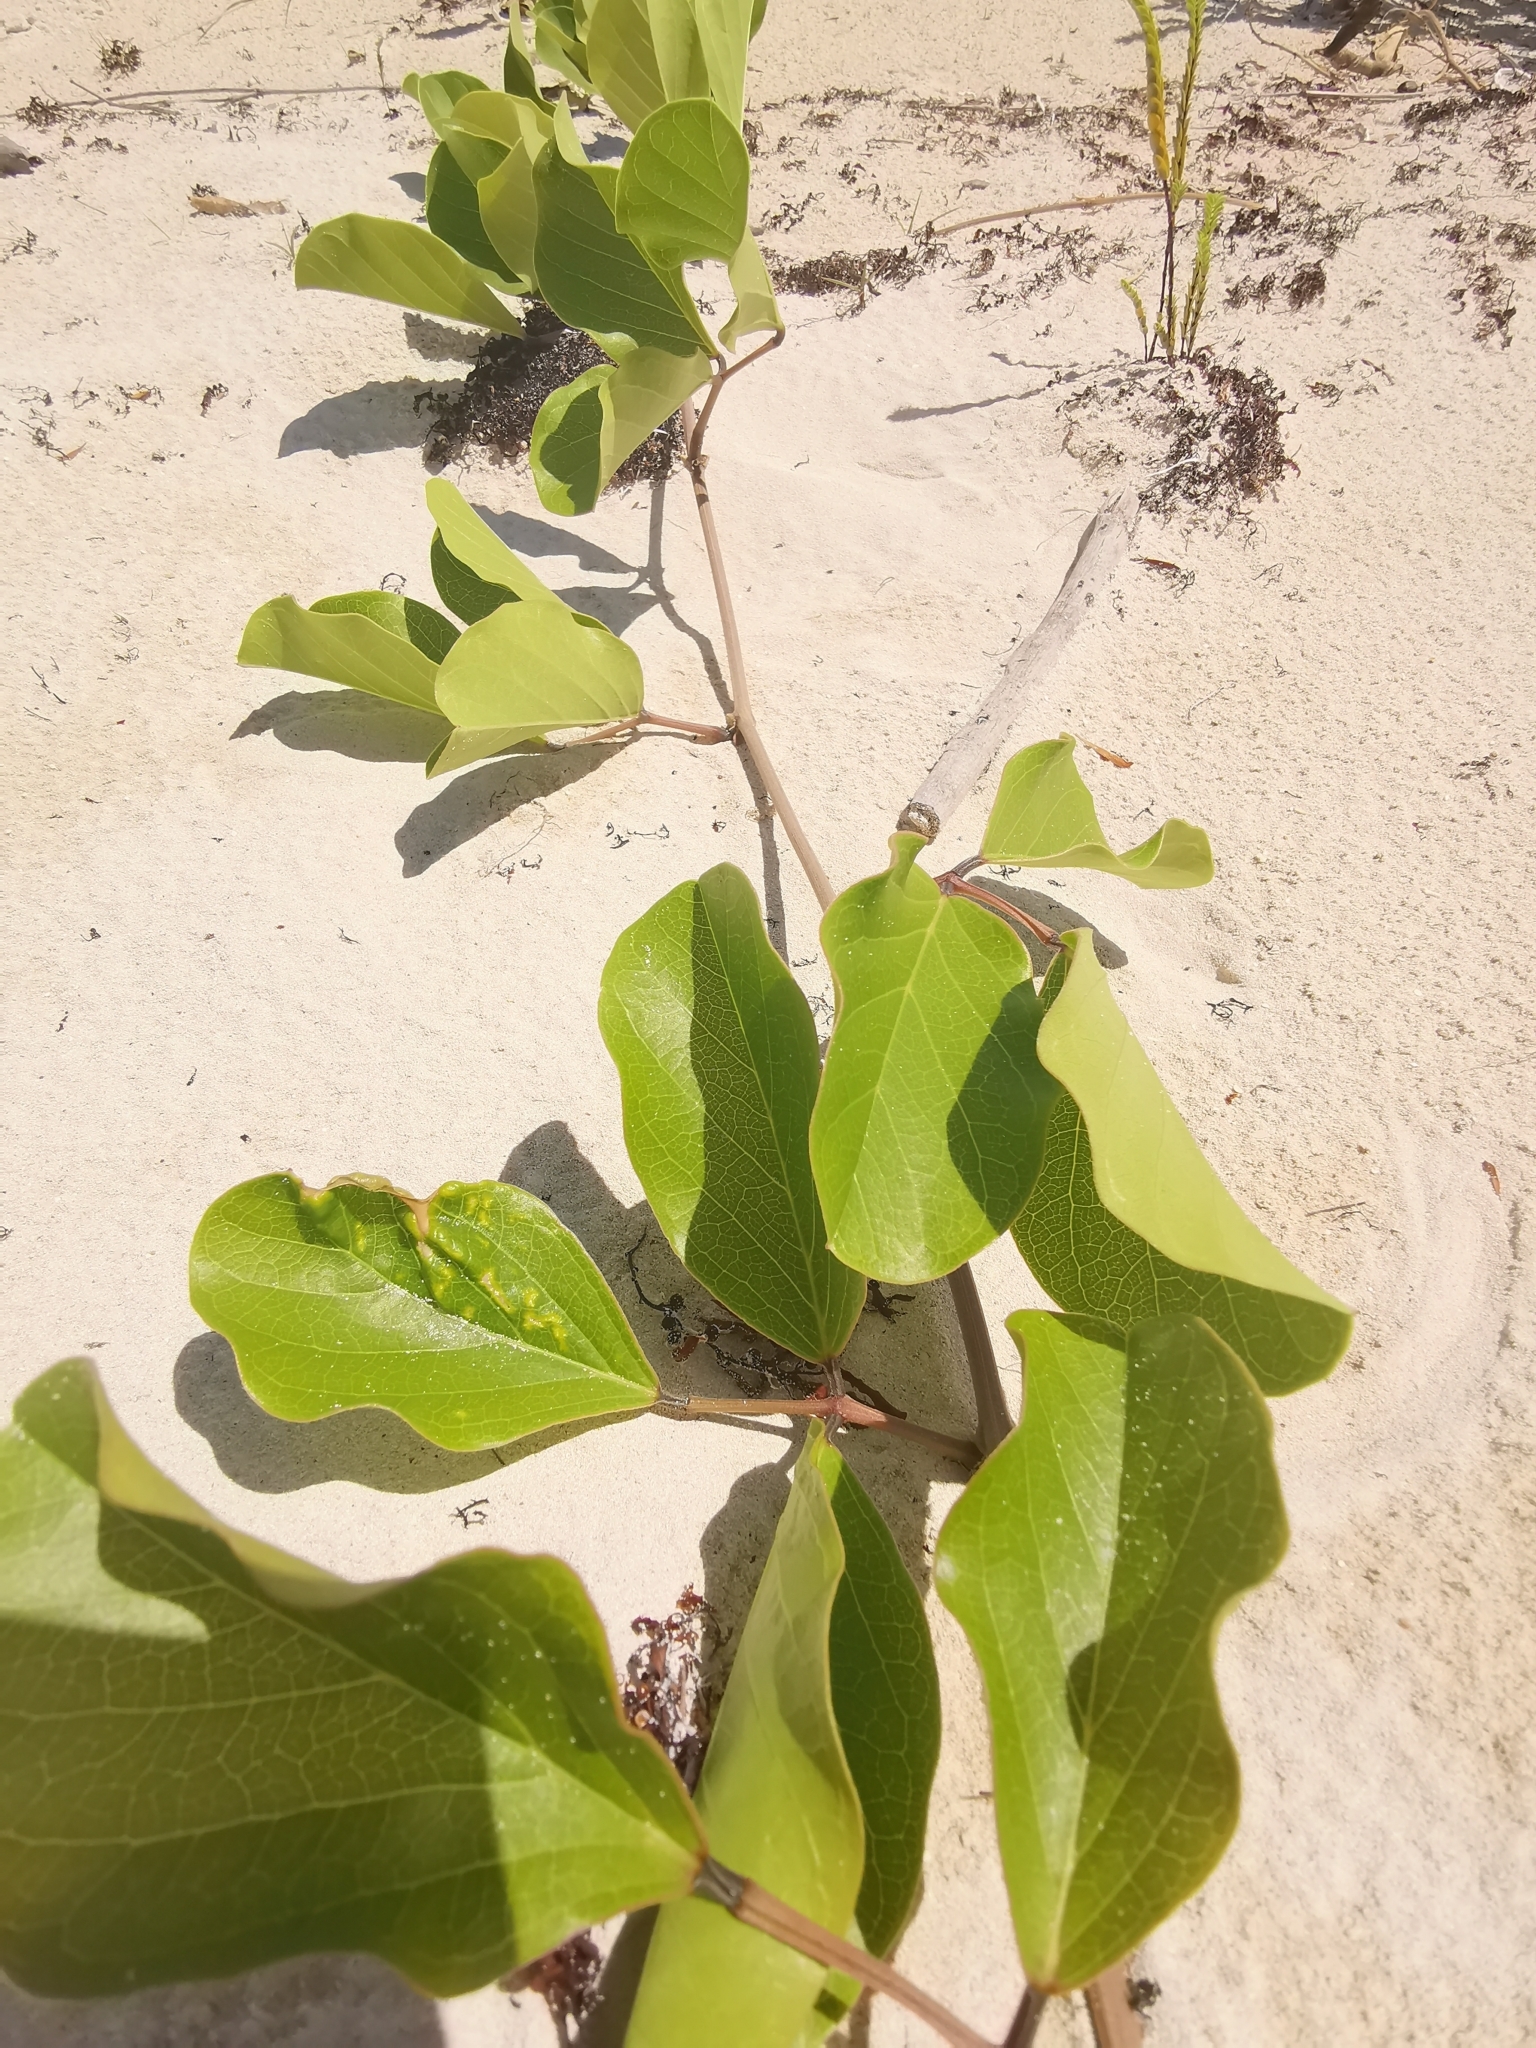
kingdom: Plantae
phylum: Tracheophyta
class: Magnoliopsida
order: Solanales
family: Convolvulaceae
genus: Ipomoea
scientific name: Ipomoea pes-caprae
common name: Beach morning glory
